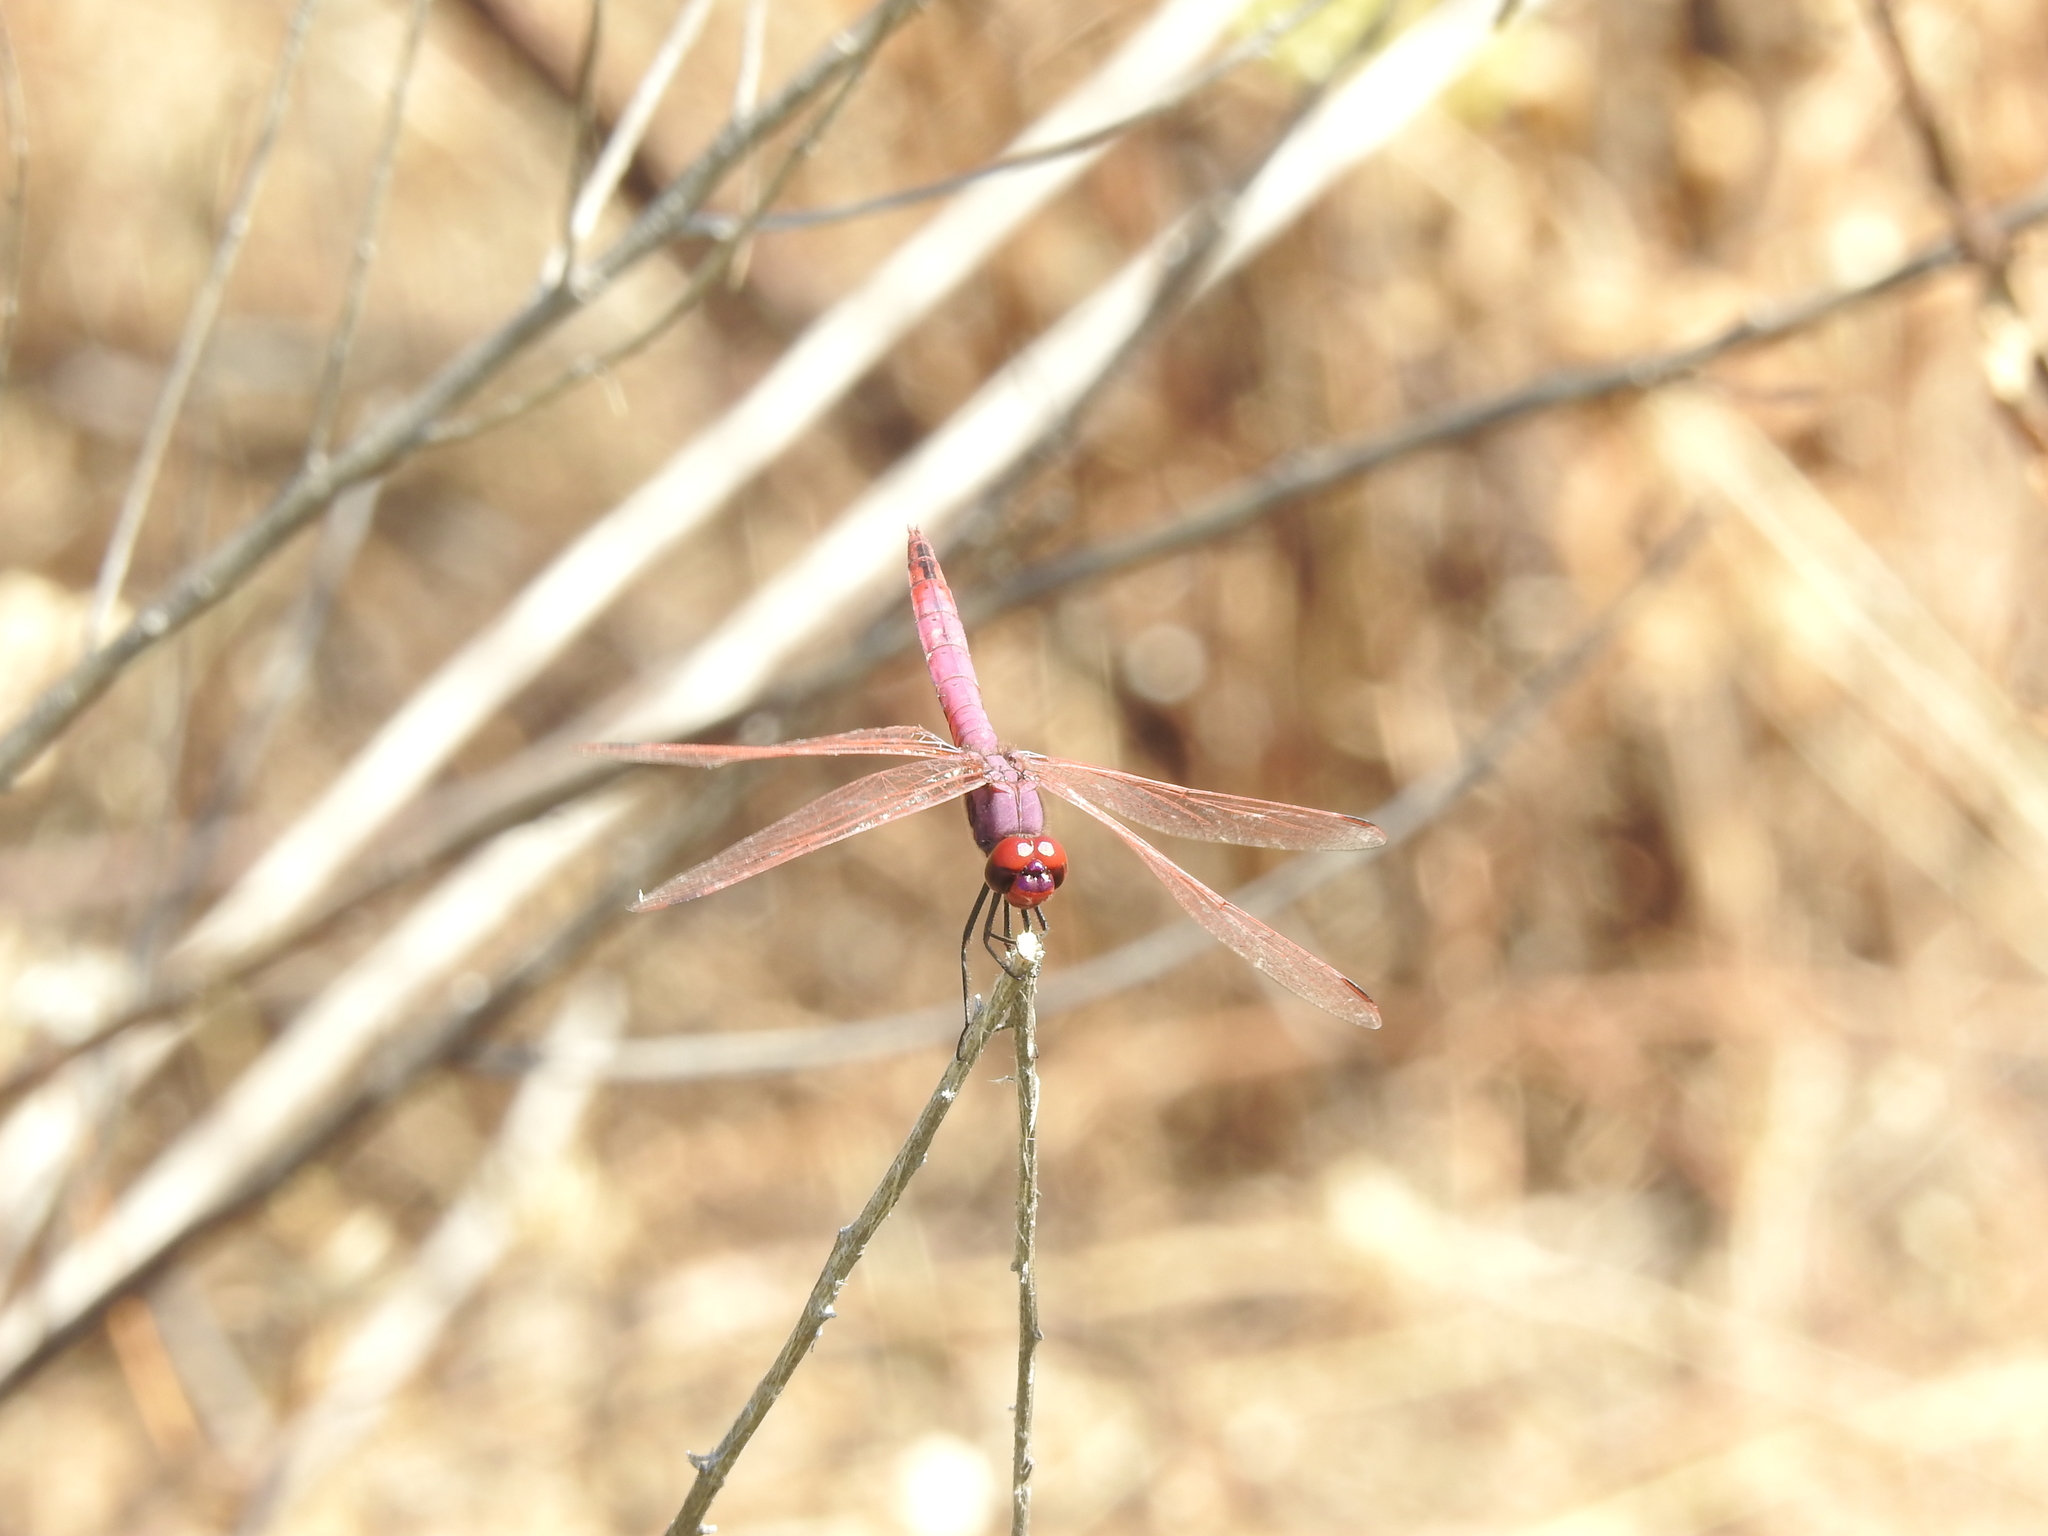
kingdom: Animalia
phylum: Arthropoda
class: Insecta
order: Odonata
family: Libellulidae
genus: Trithemis
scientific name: Trithemis annulata
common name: Violet dropwing
